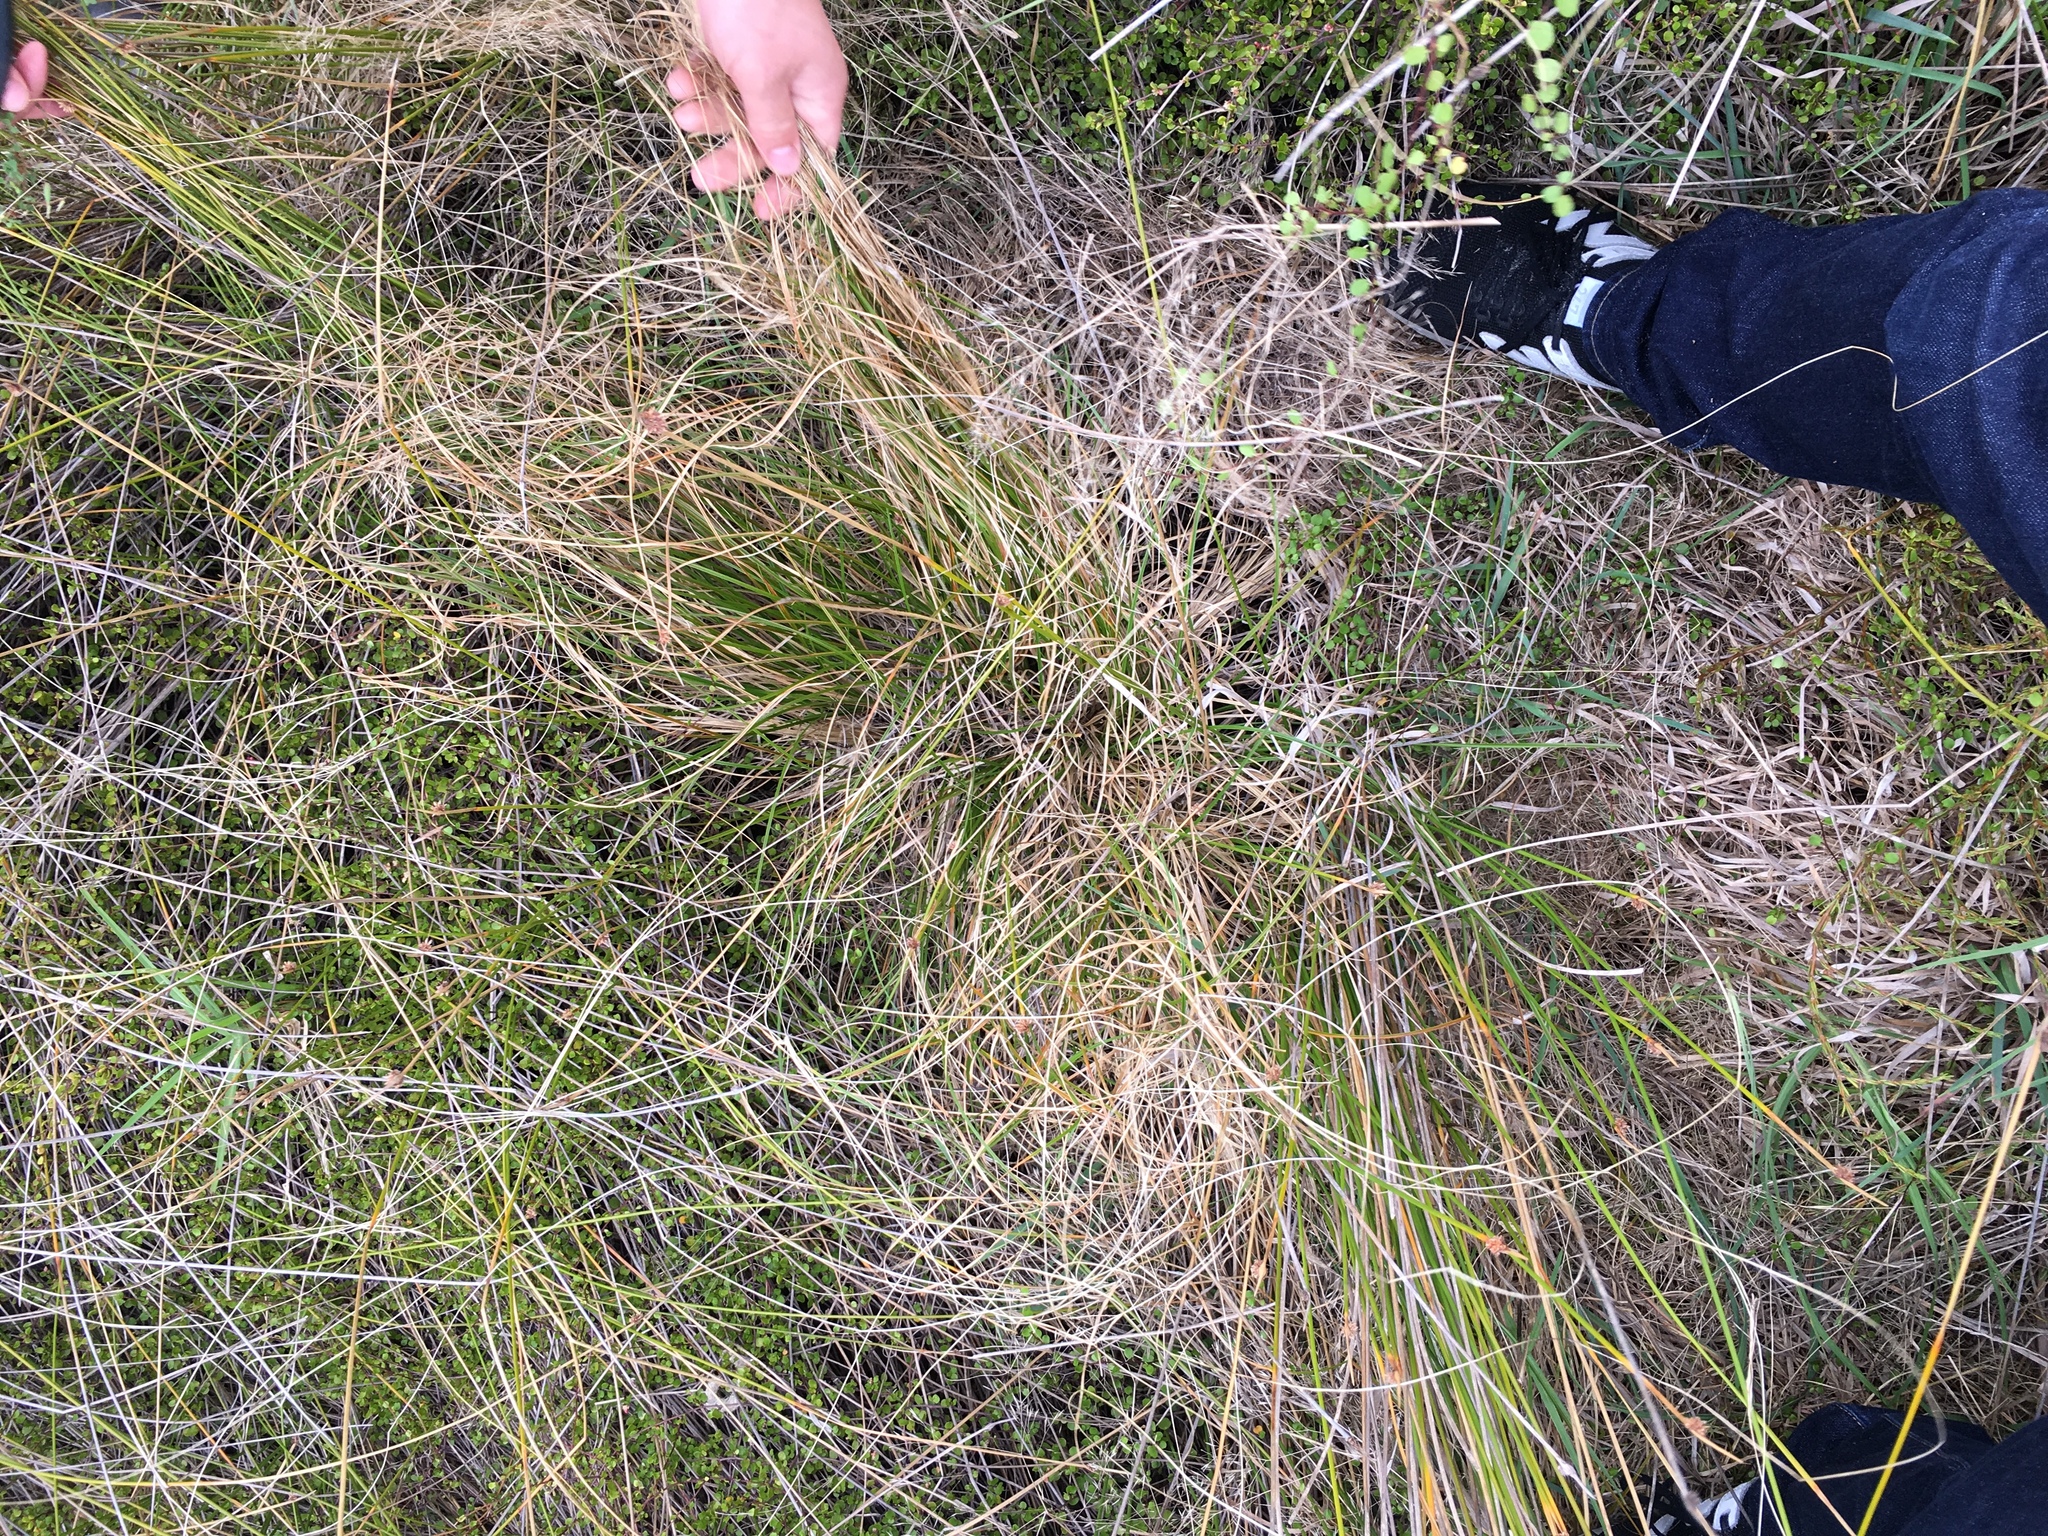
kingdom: Plantae
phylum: Tracheophyta
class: Liliopsida
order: Poales
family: Cyperaceae
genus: Carex
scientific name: Carex testacea
